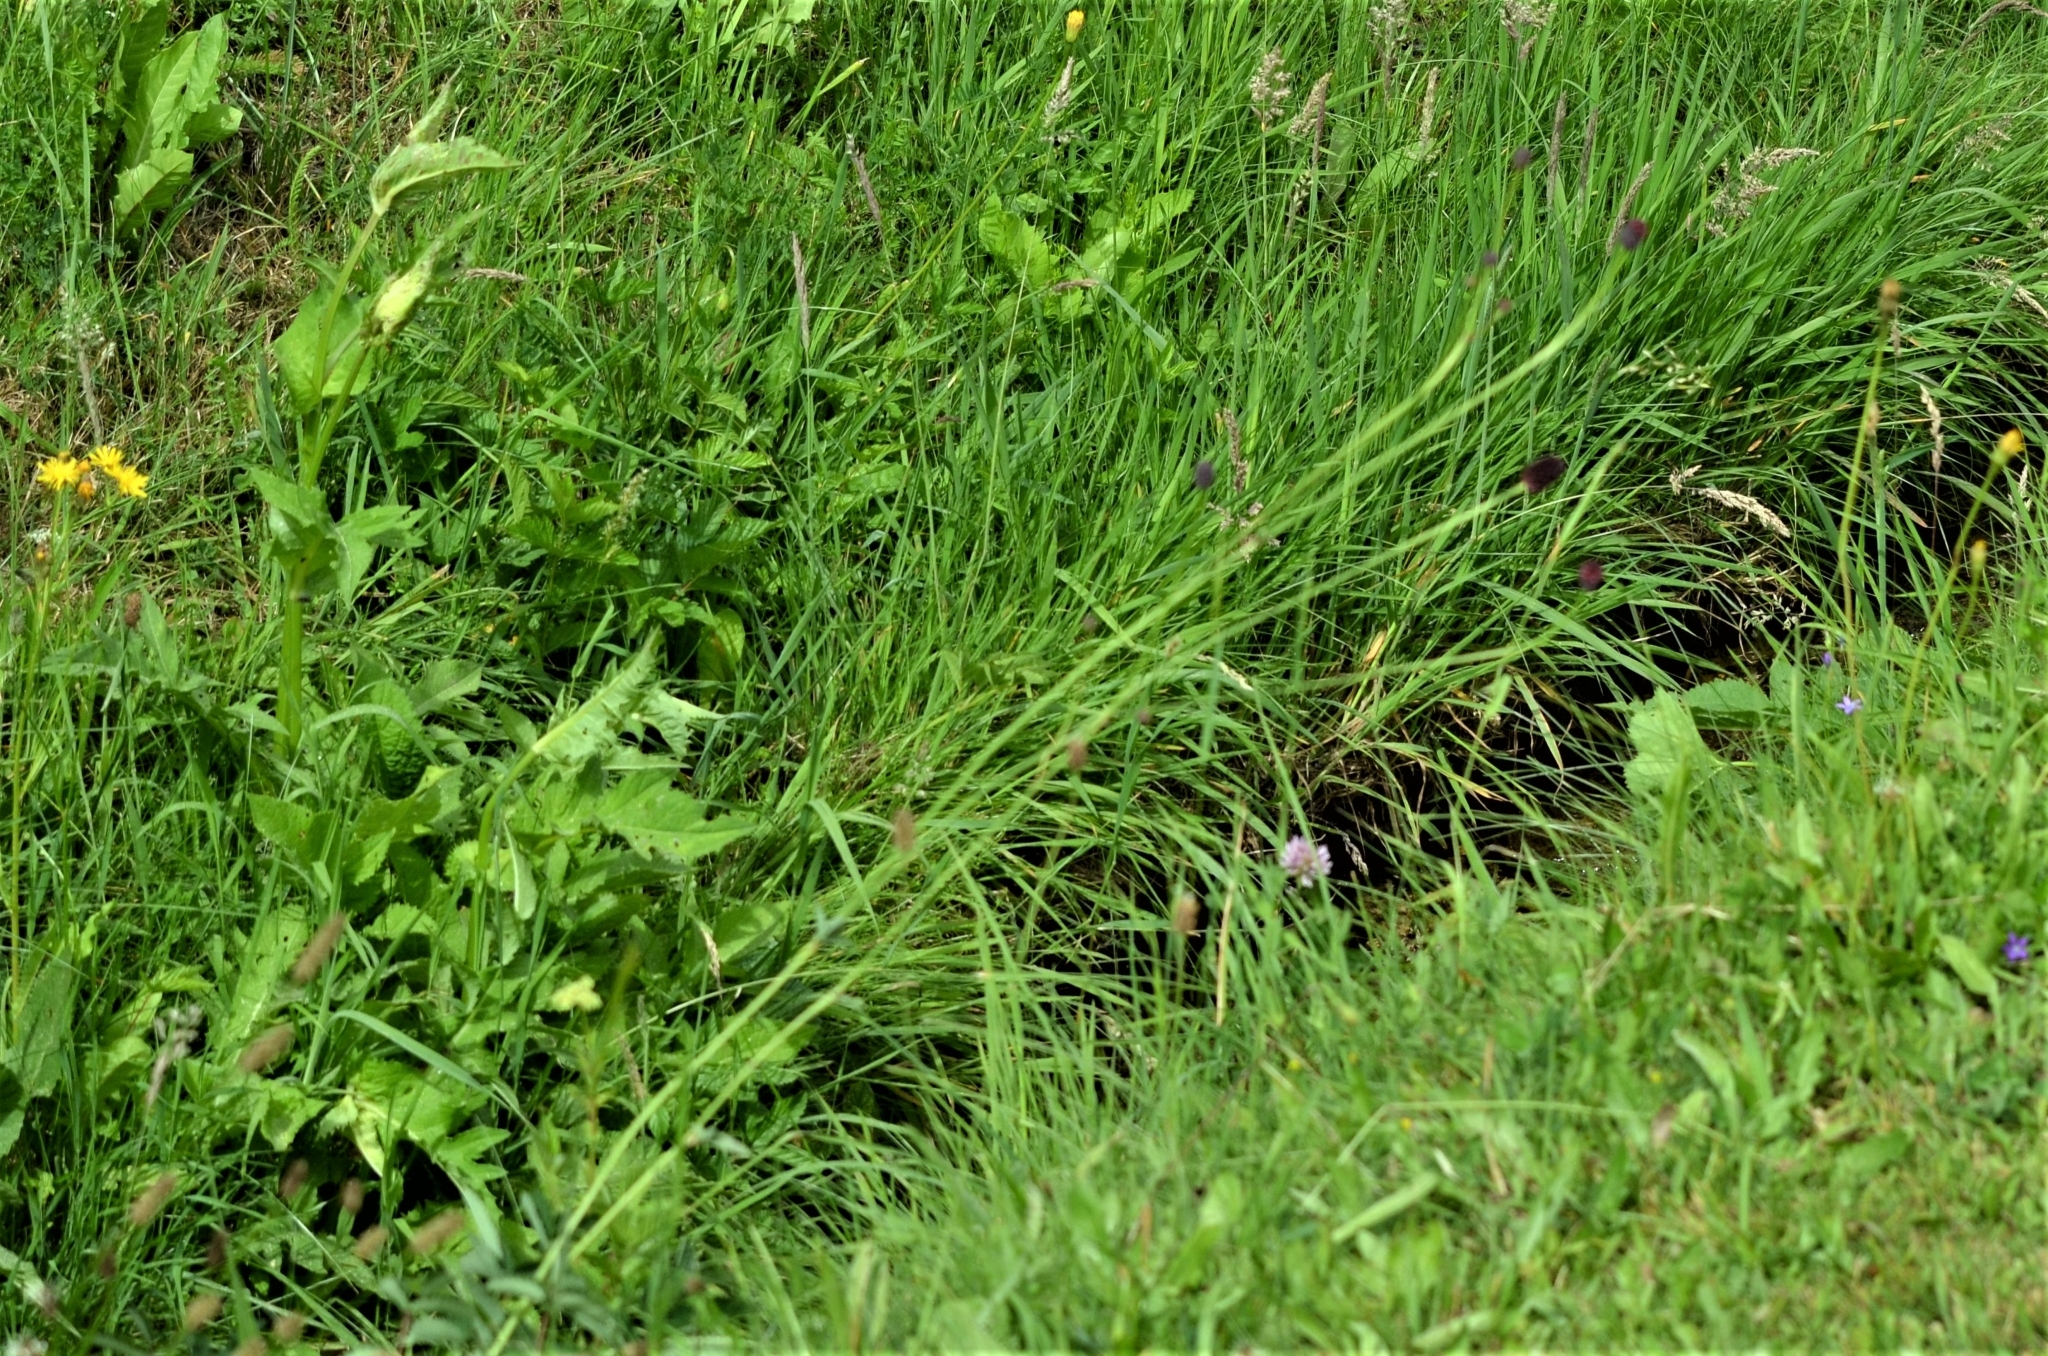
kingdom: Plantae
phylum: Tracheophyta
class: Magnoliopsida
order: Rosales
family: Rosaceae
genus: Sanguisorba
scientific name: Sanguisorba officinalis
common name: Great burnet
